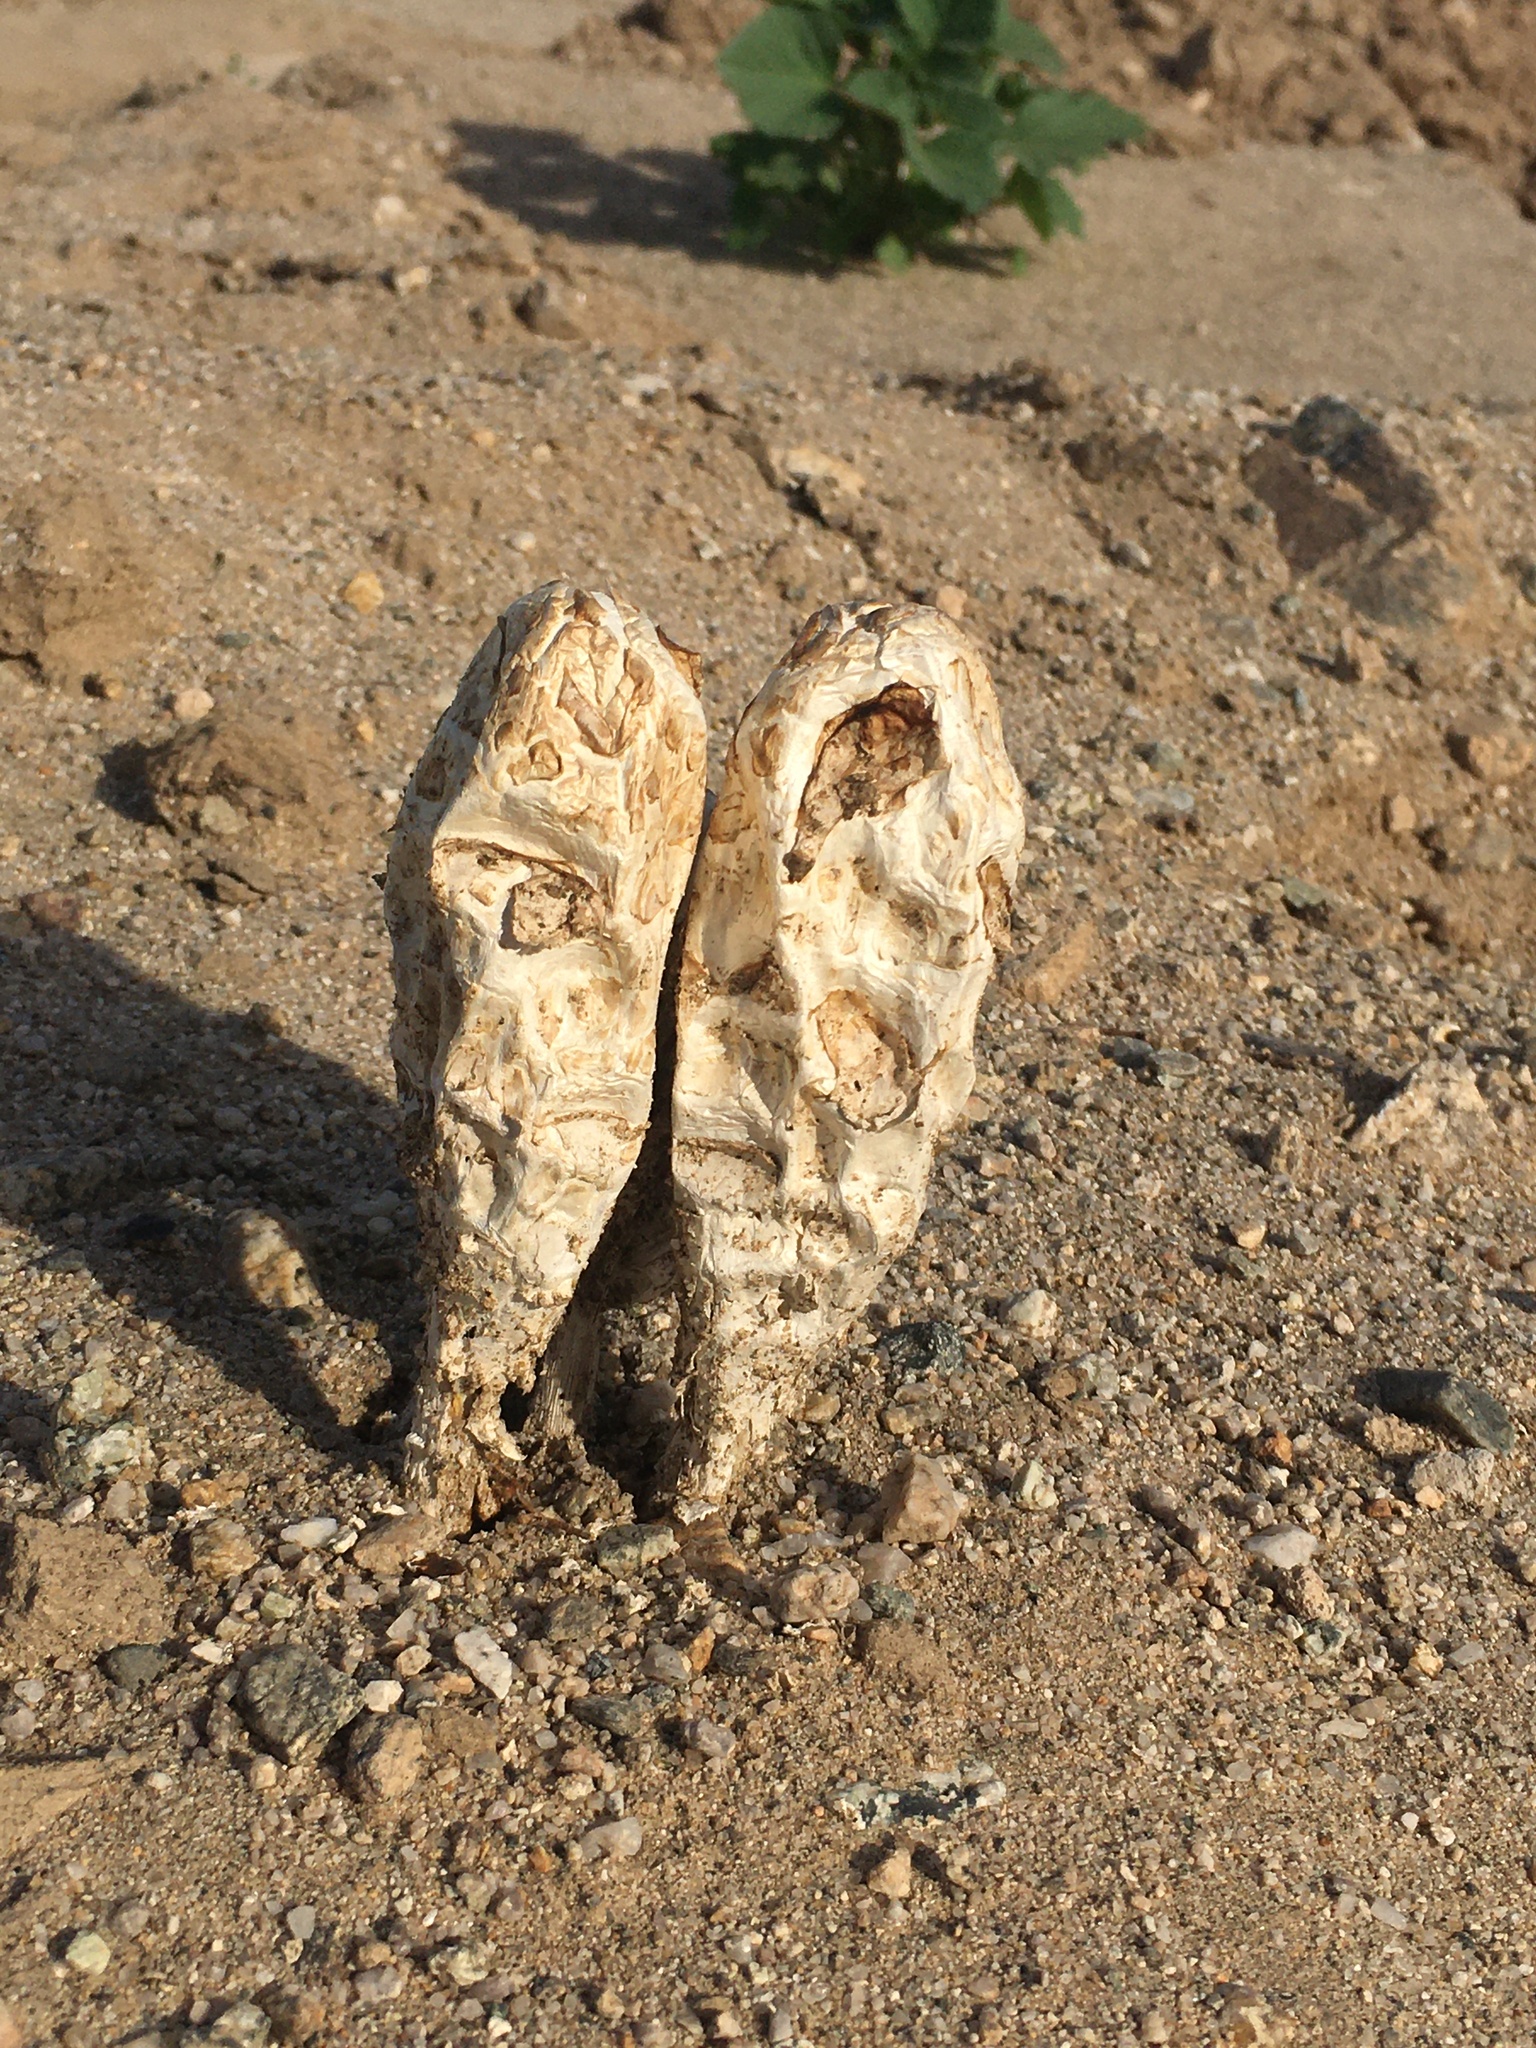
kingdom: Fungi
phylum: Basidiomycota
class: Agaricomycetes
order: Agaricales
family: Agaricaceae
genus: Podaxis
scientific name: Podaxis pistillaris
